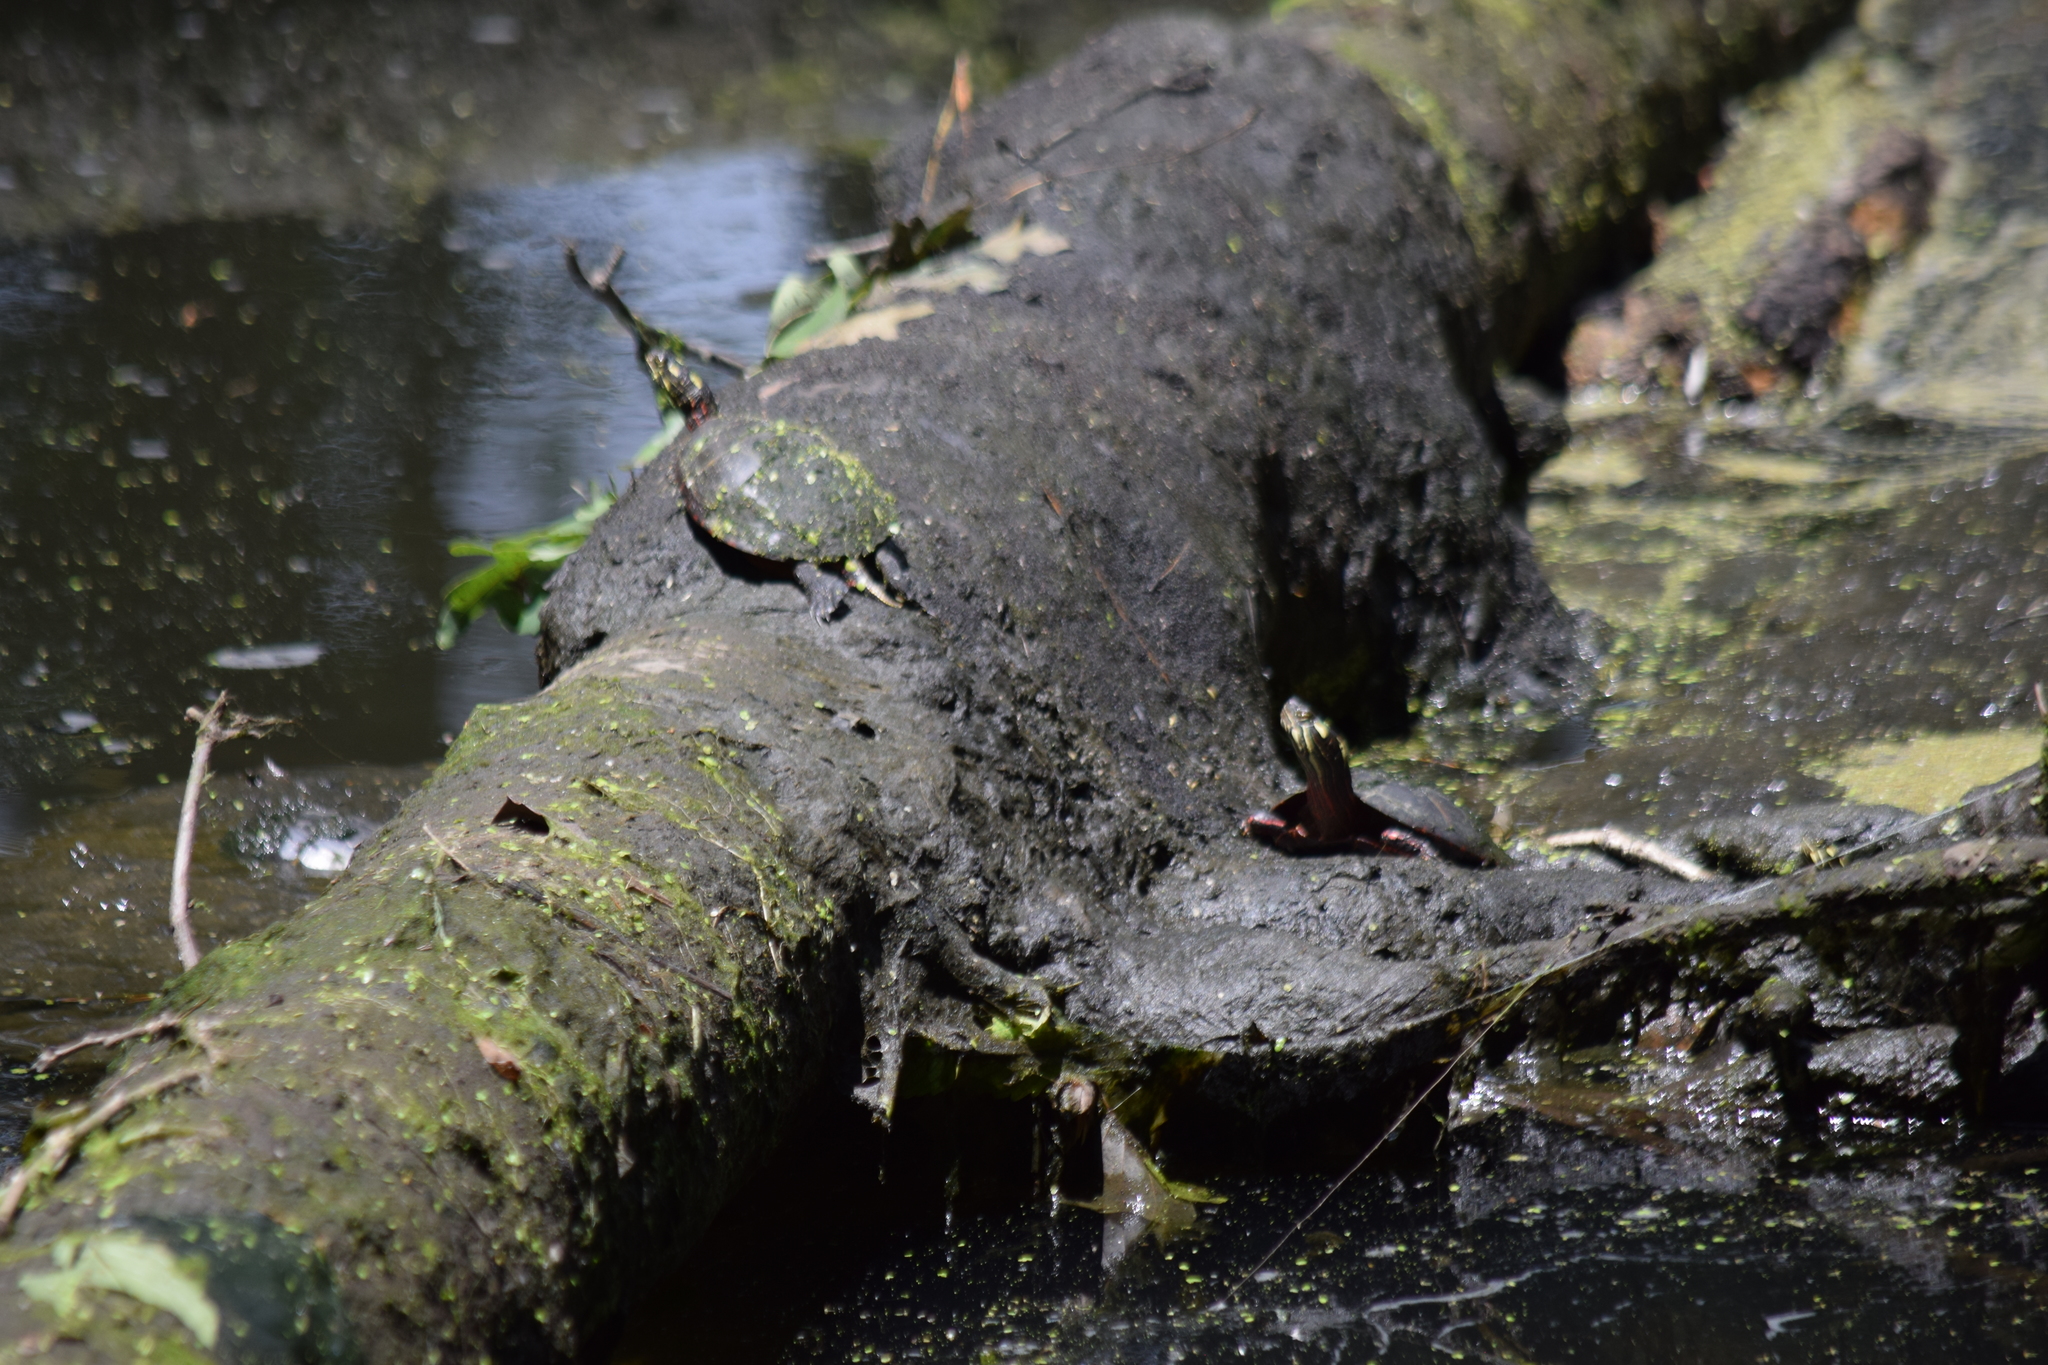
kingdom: Animalia
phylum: Chordata
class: Testudines
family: Emydidae
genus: Chrysemys
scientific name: Chrysemys picta
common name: Painted turtle
